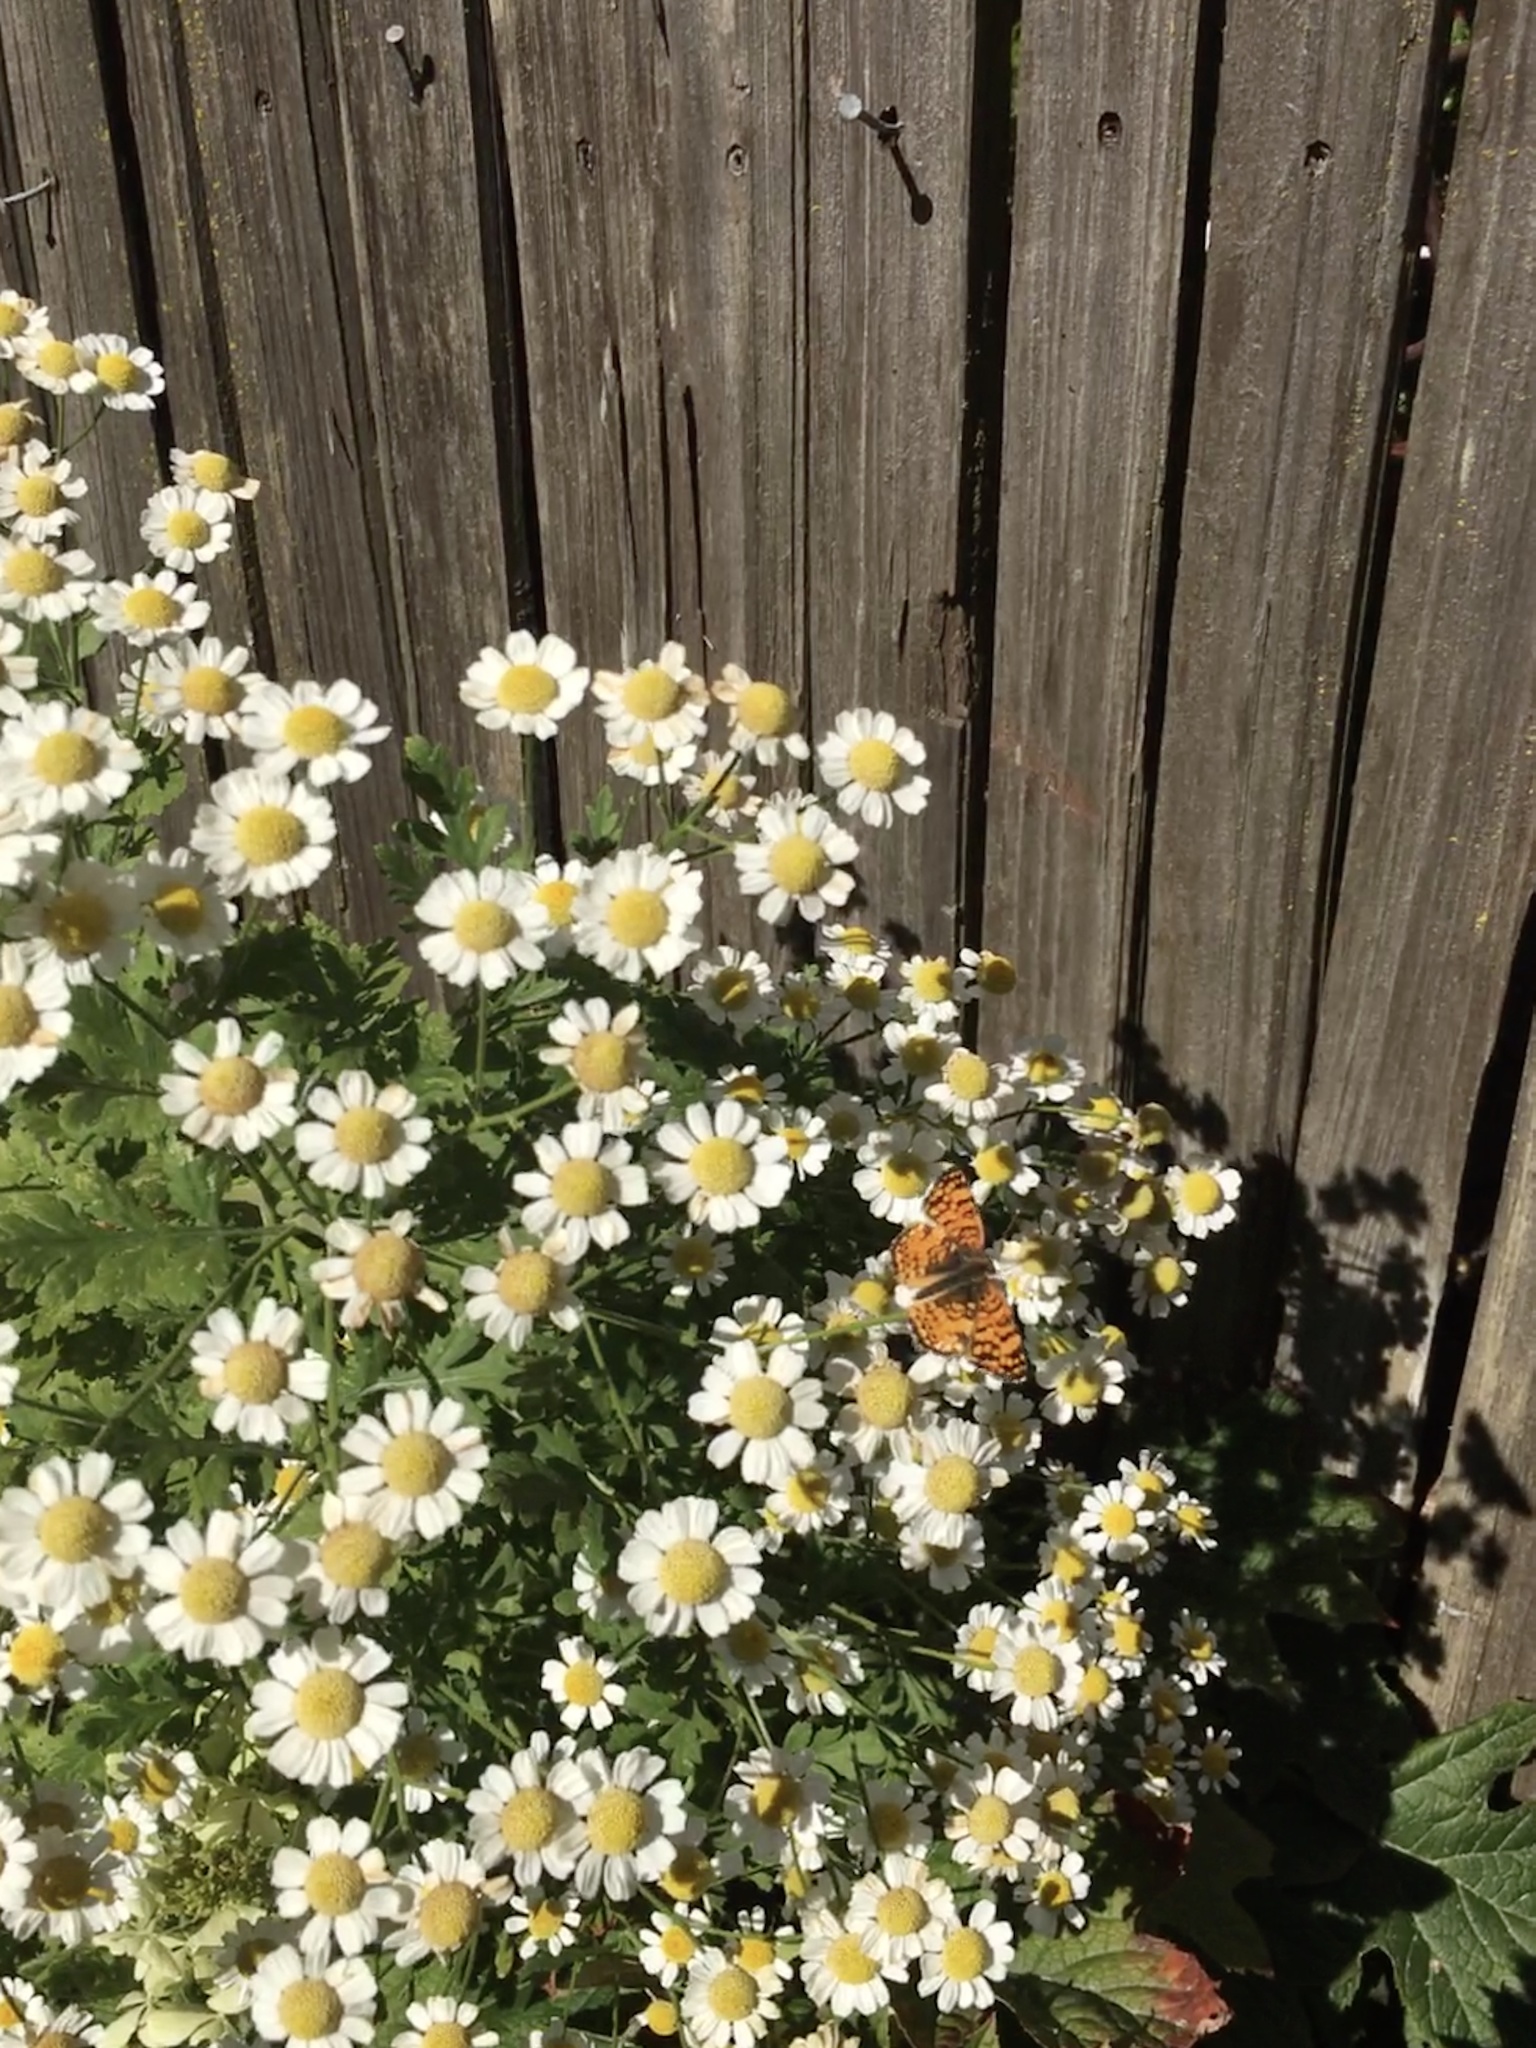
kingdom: Animalia
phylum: Arthropoda
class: Insecta
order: Lepidoptera
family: Nymphalidae
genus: Eresia
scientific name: Eresia aveyrona
